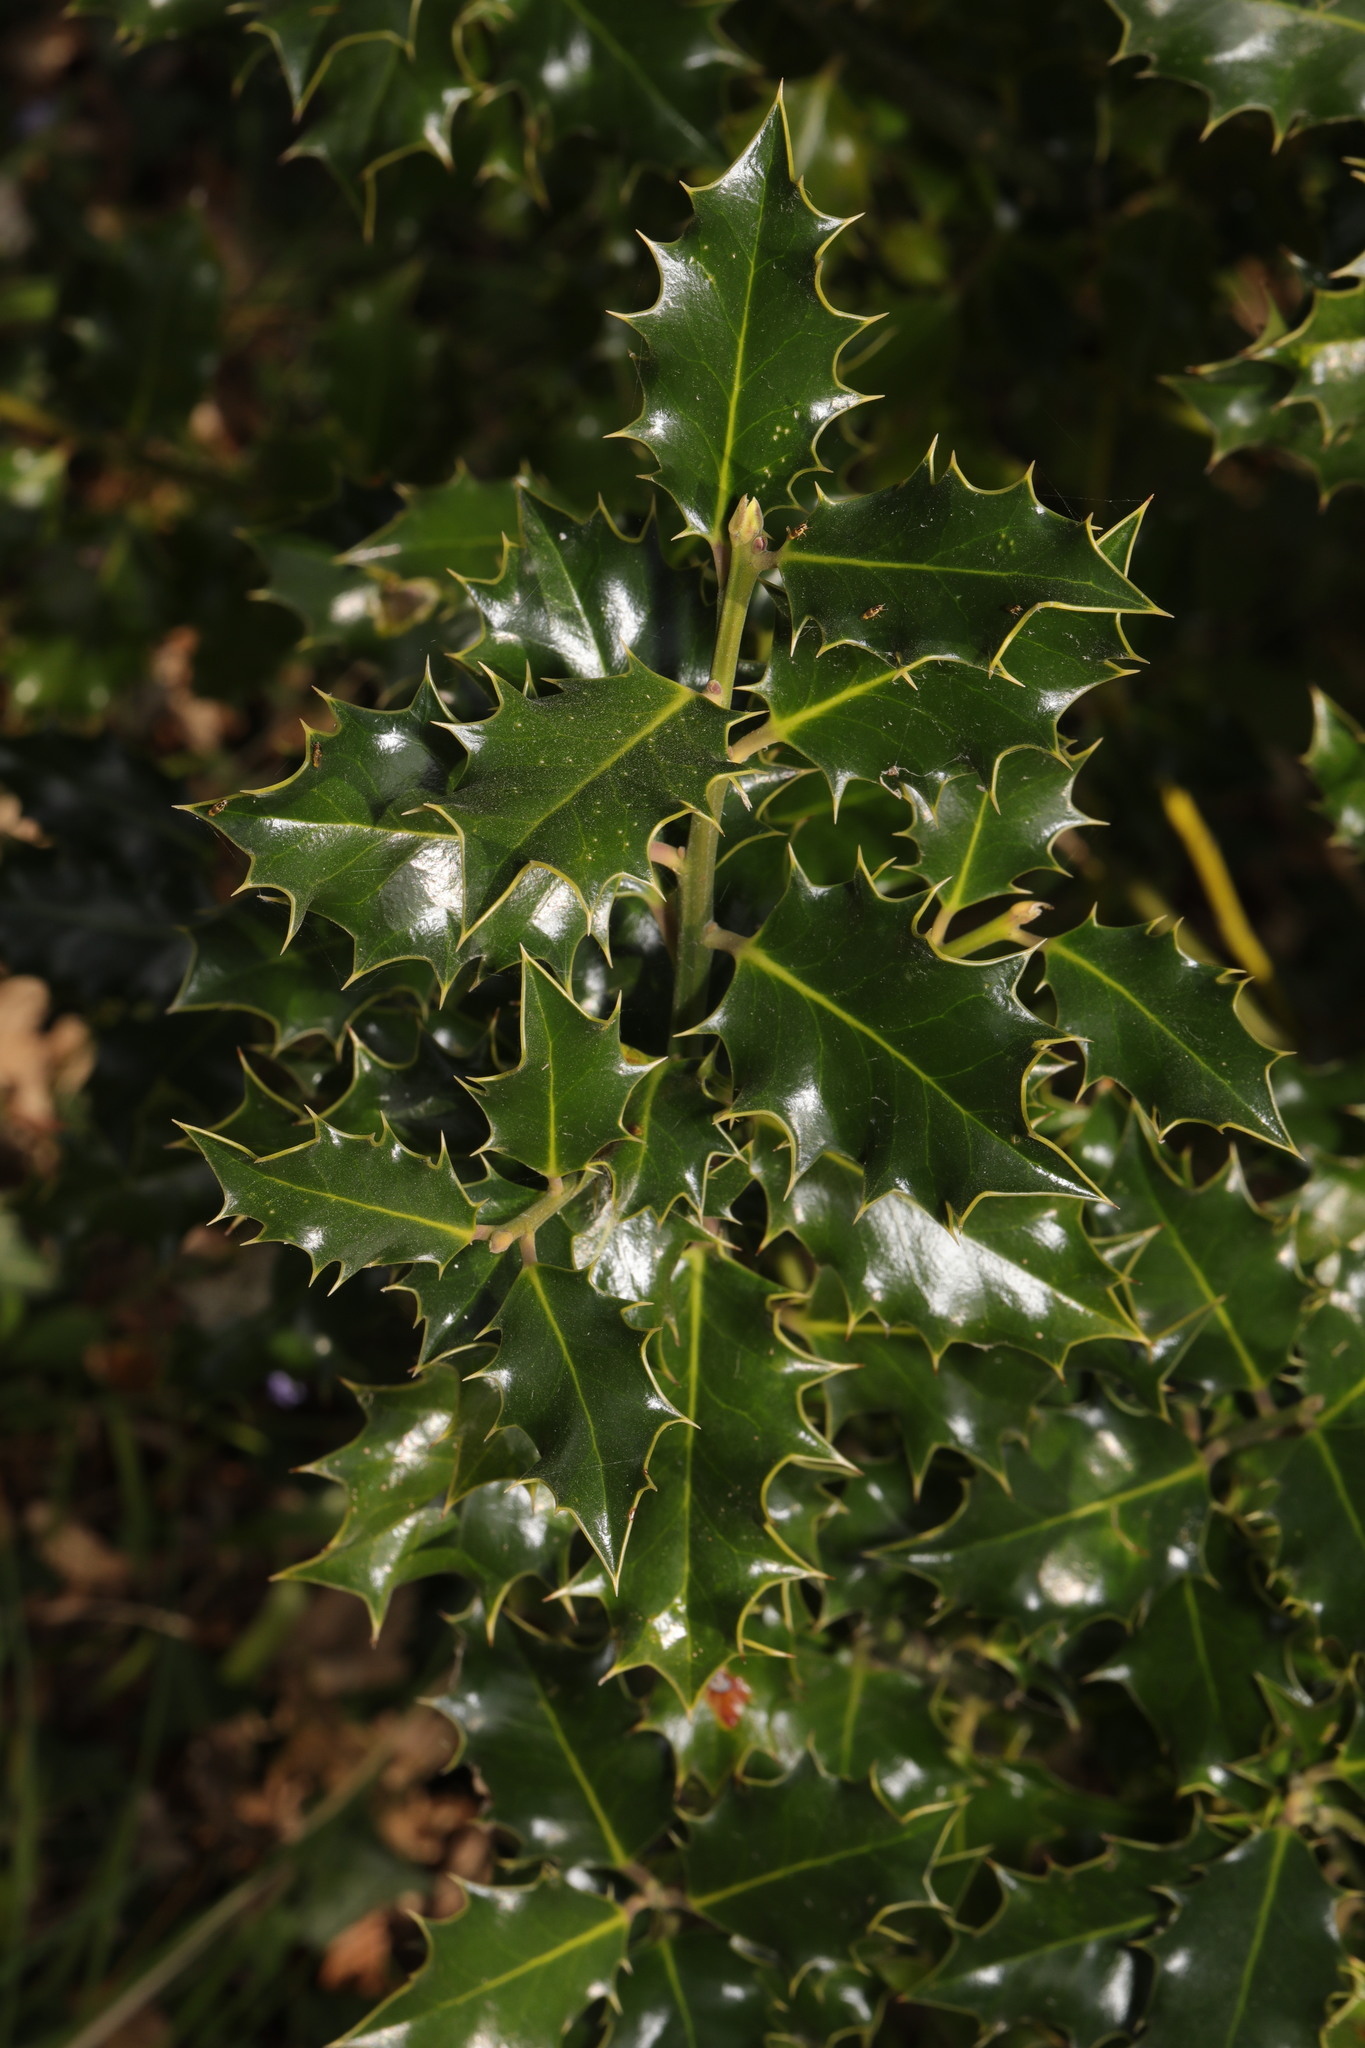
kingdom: Plantae
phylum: Tracheophyta
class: Magnoliopsida
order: Aquifoliales
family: Aquifoliaceae
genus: Ilex
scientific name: Ilex aquifolium
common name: English holly
